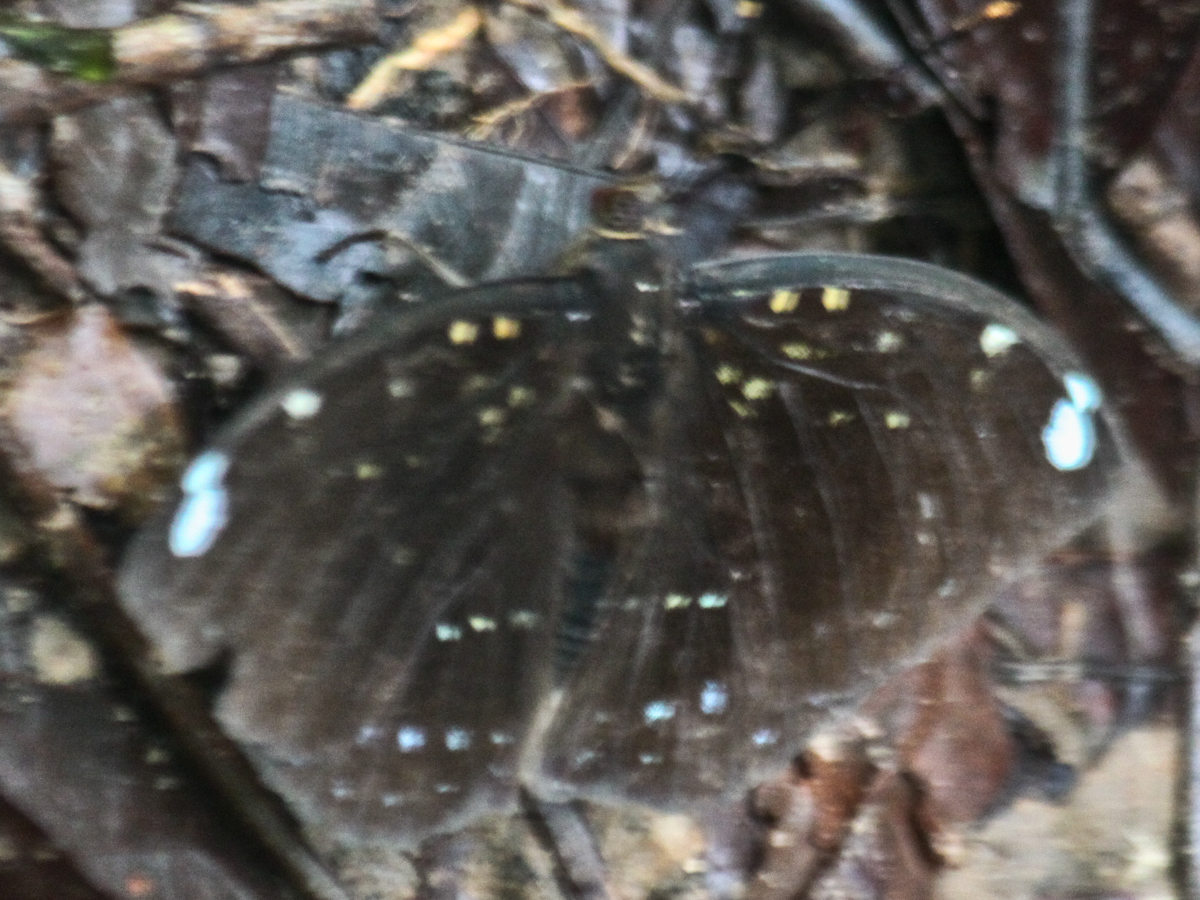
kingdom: Animalia
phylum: Arthropoda
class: Insecta
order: Lepidoptera
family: Nymphalidae
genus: Lexias
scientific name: Lexias
